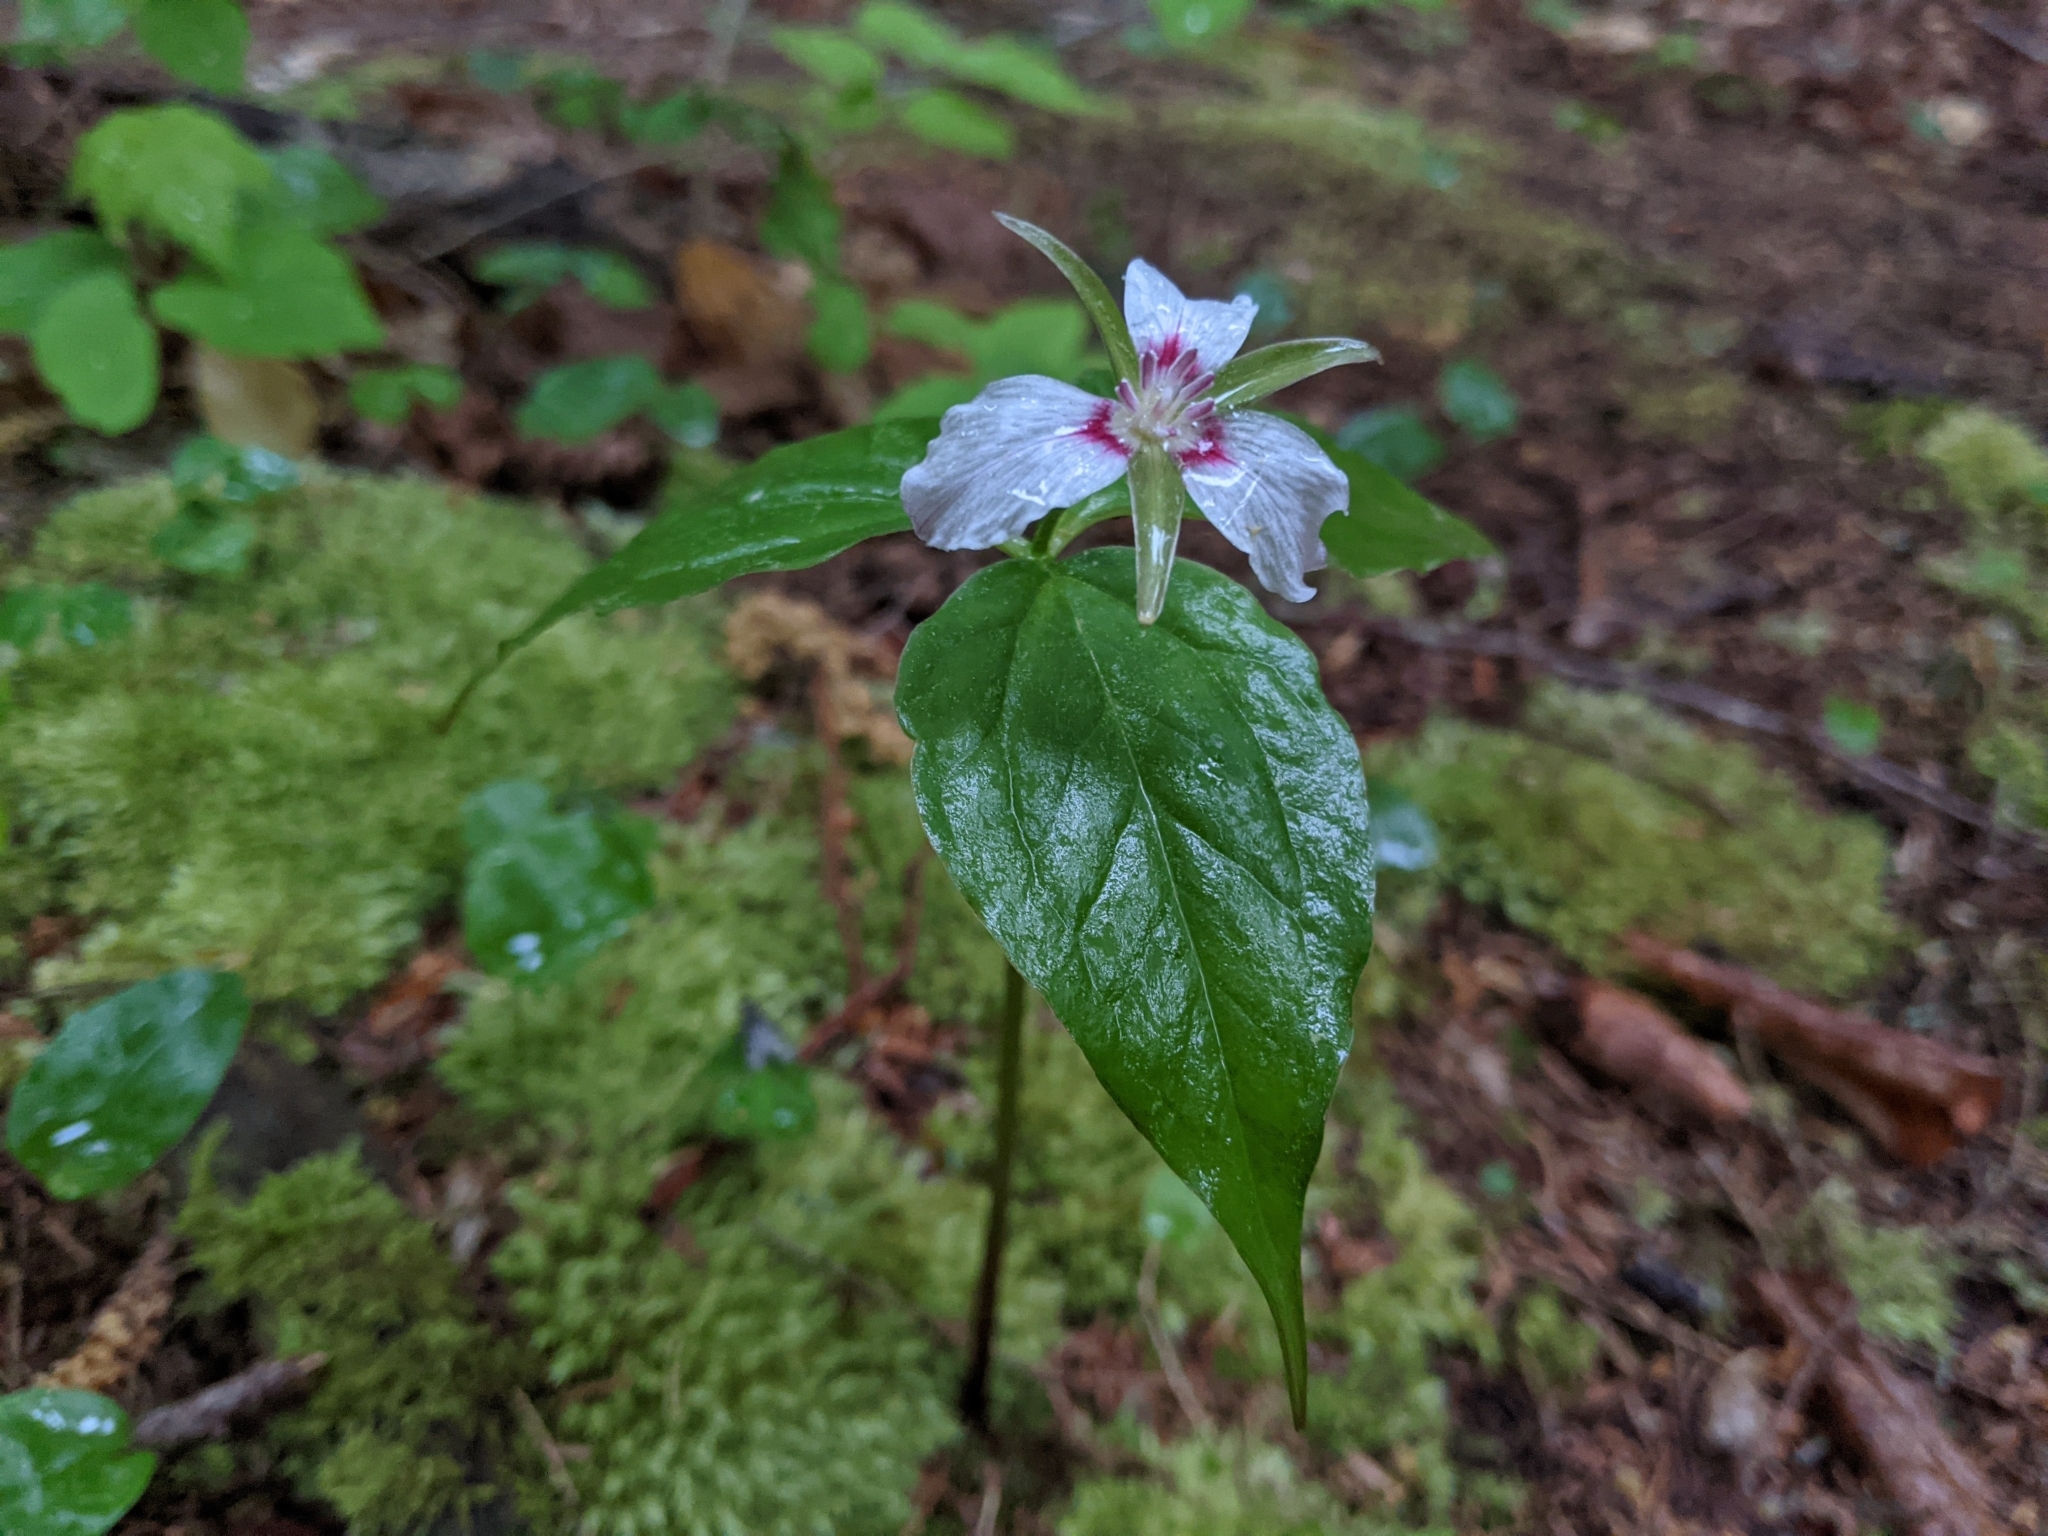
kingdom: Plantae
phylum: Tracheophyta
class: Liliopsida
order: Liliales
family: Melanthiaceae
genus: Trillium
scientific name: Trillium undulatum
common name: Paint trillium
